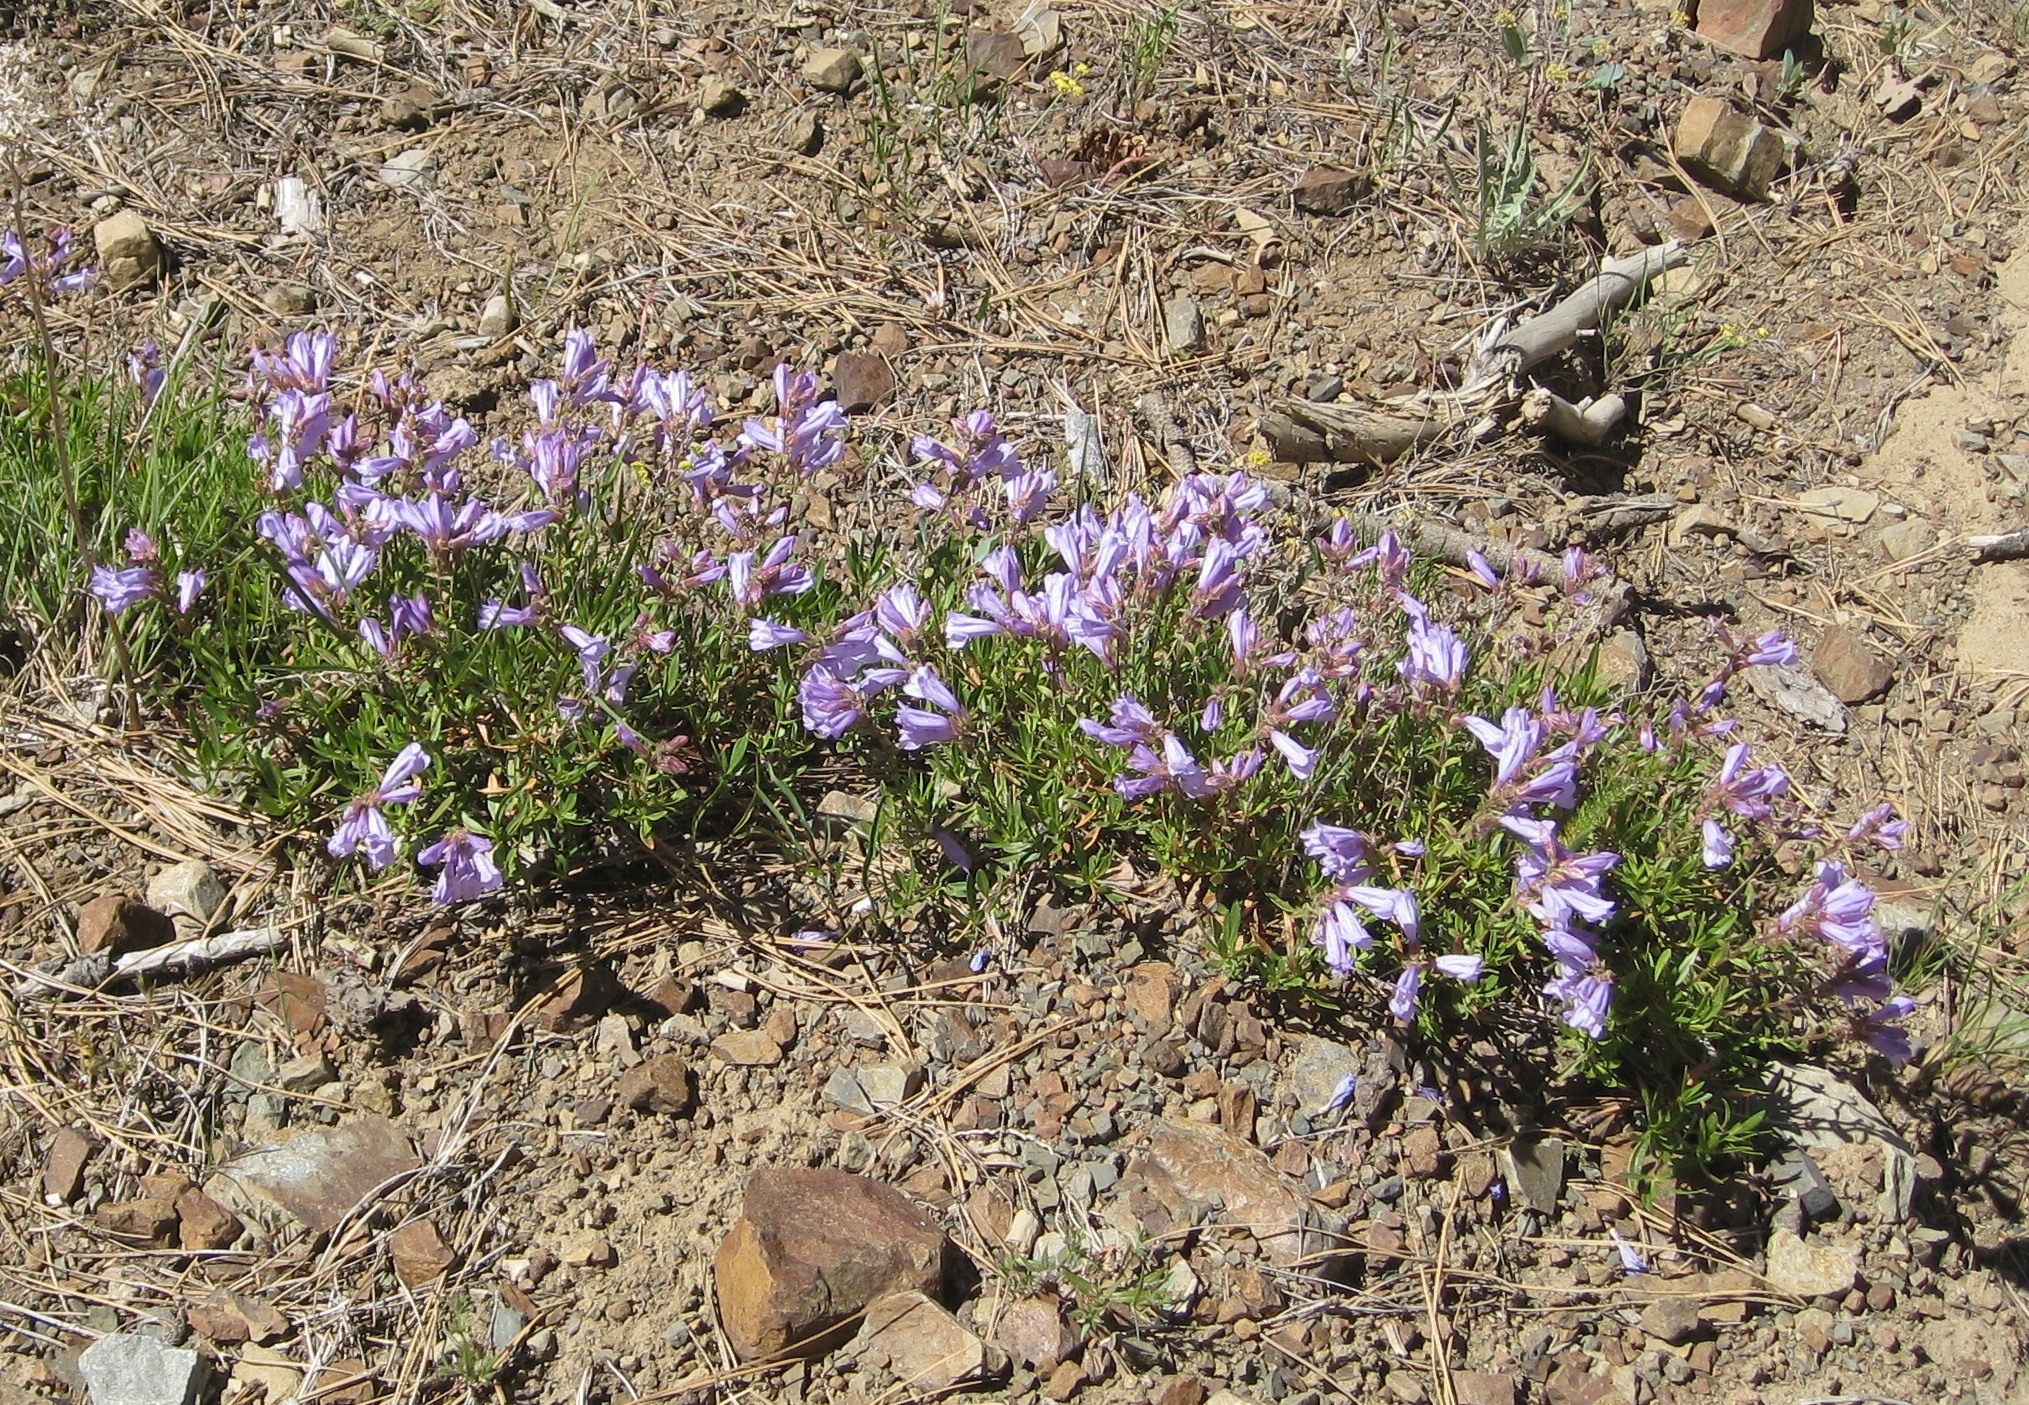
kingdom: Plantae
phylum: Tracheophyta
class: Magnoliopsida
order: Lamiales
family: Plantaginaceae
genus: Penstemon
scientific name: Penstemon fruticosus
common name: Bush penstemon
